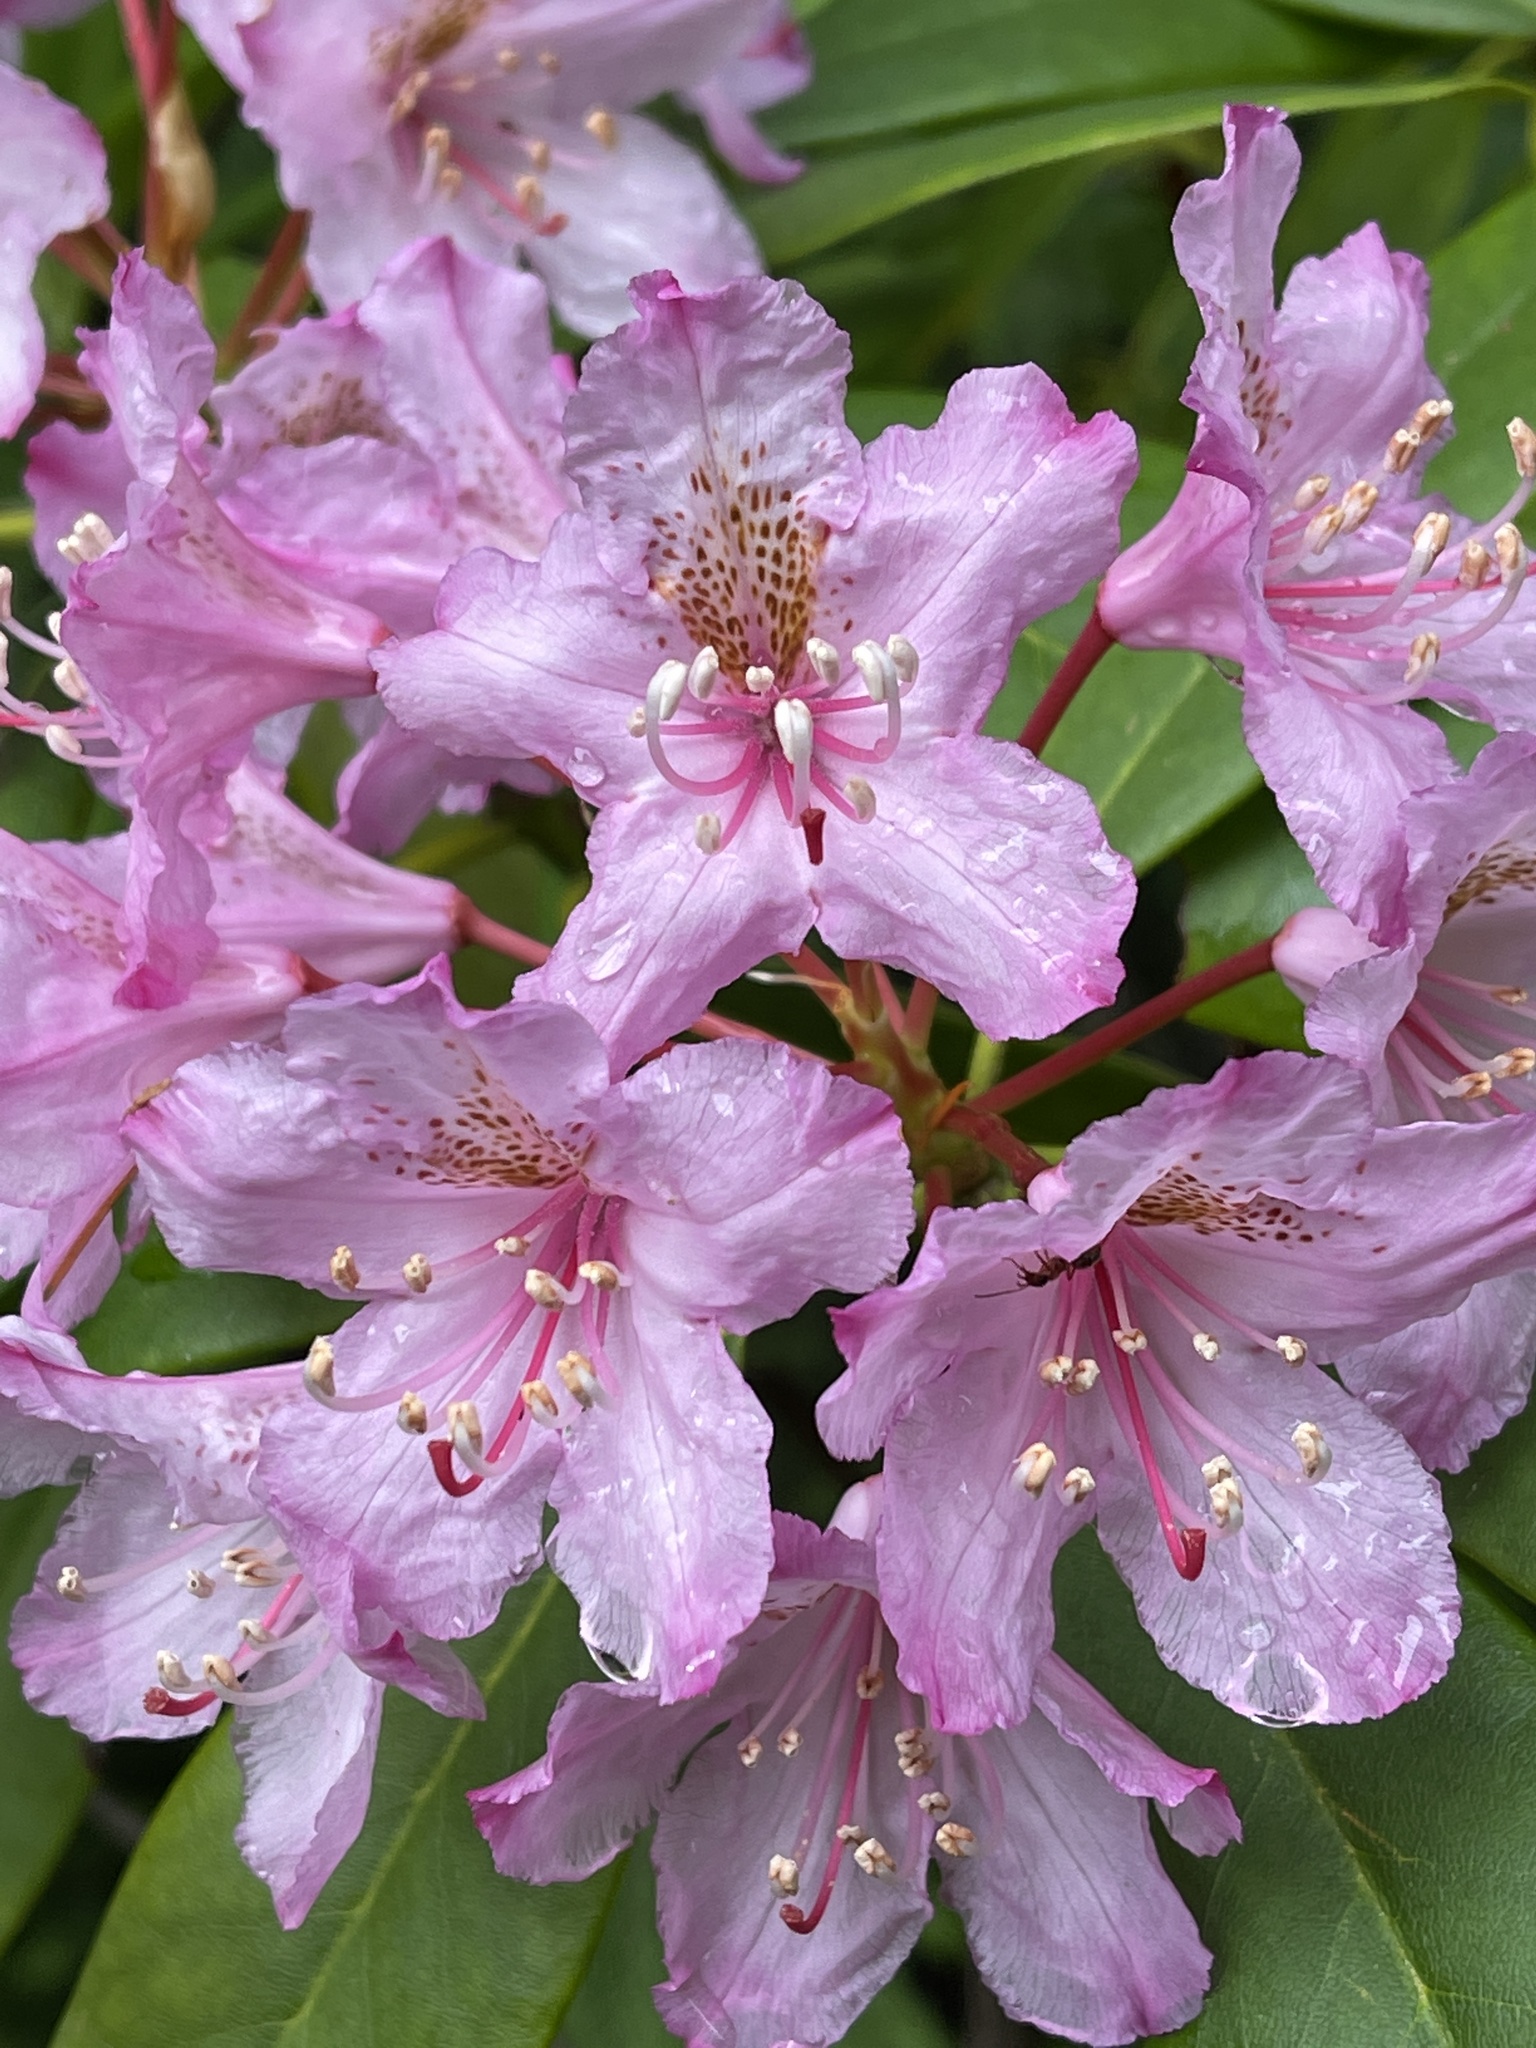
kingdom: Plantae
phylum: Tracheophyta
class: Magnoliopsida
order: Ericales
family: Ericaceae
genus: Rhododendron
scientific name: Rhododendron macrophyllum
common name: California rose bay
